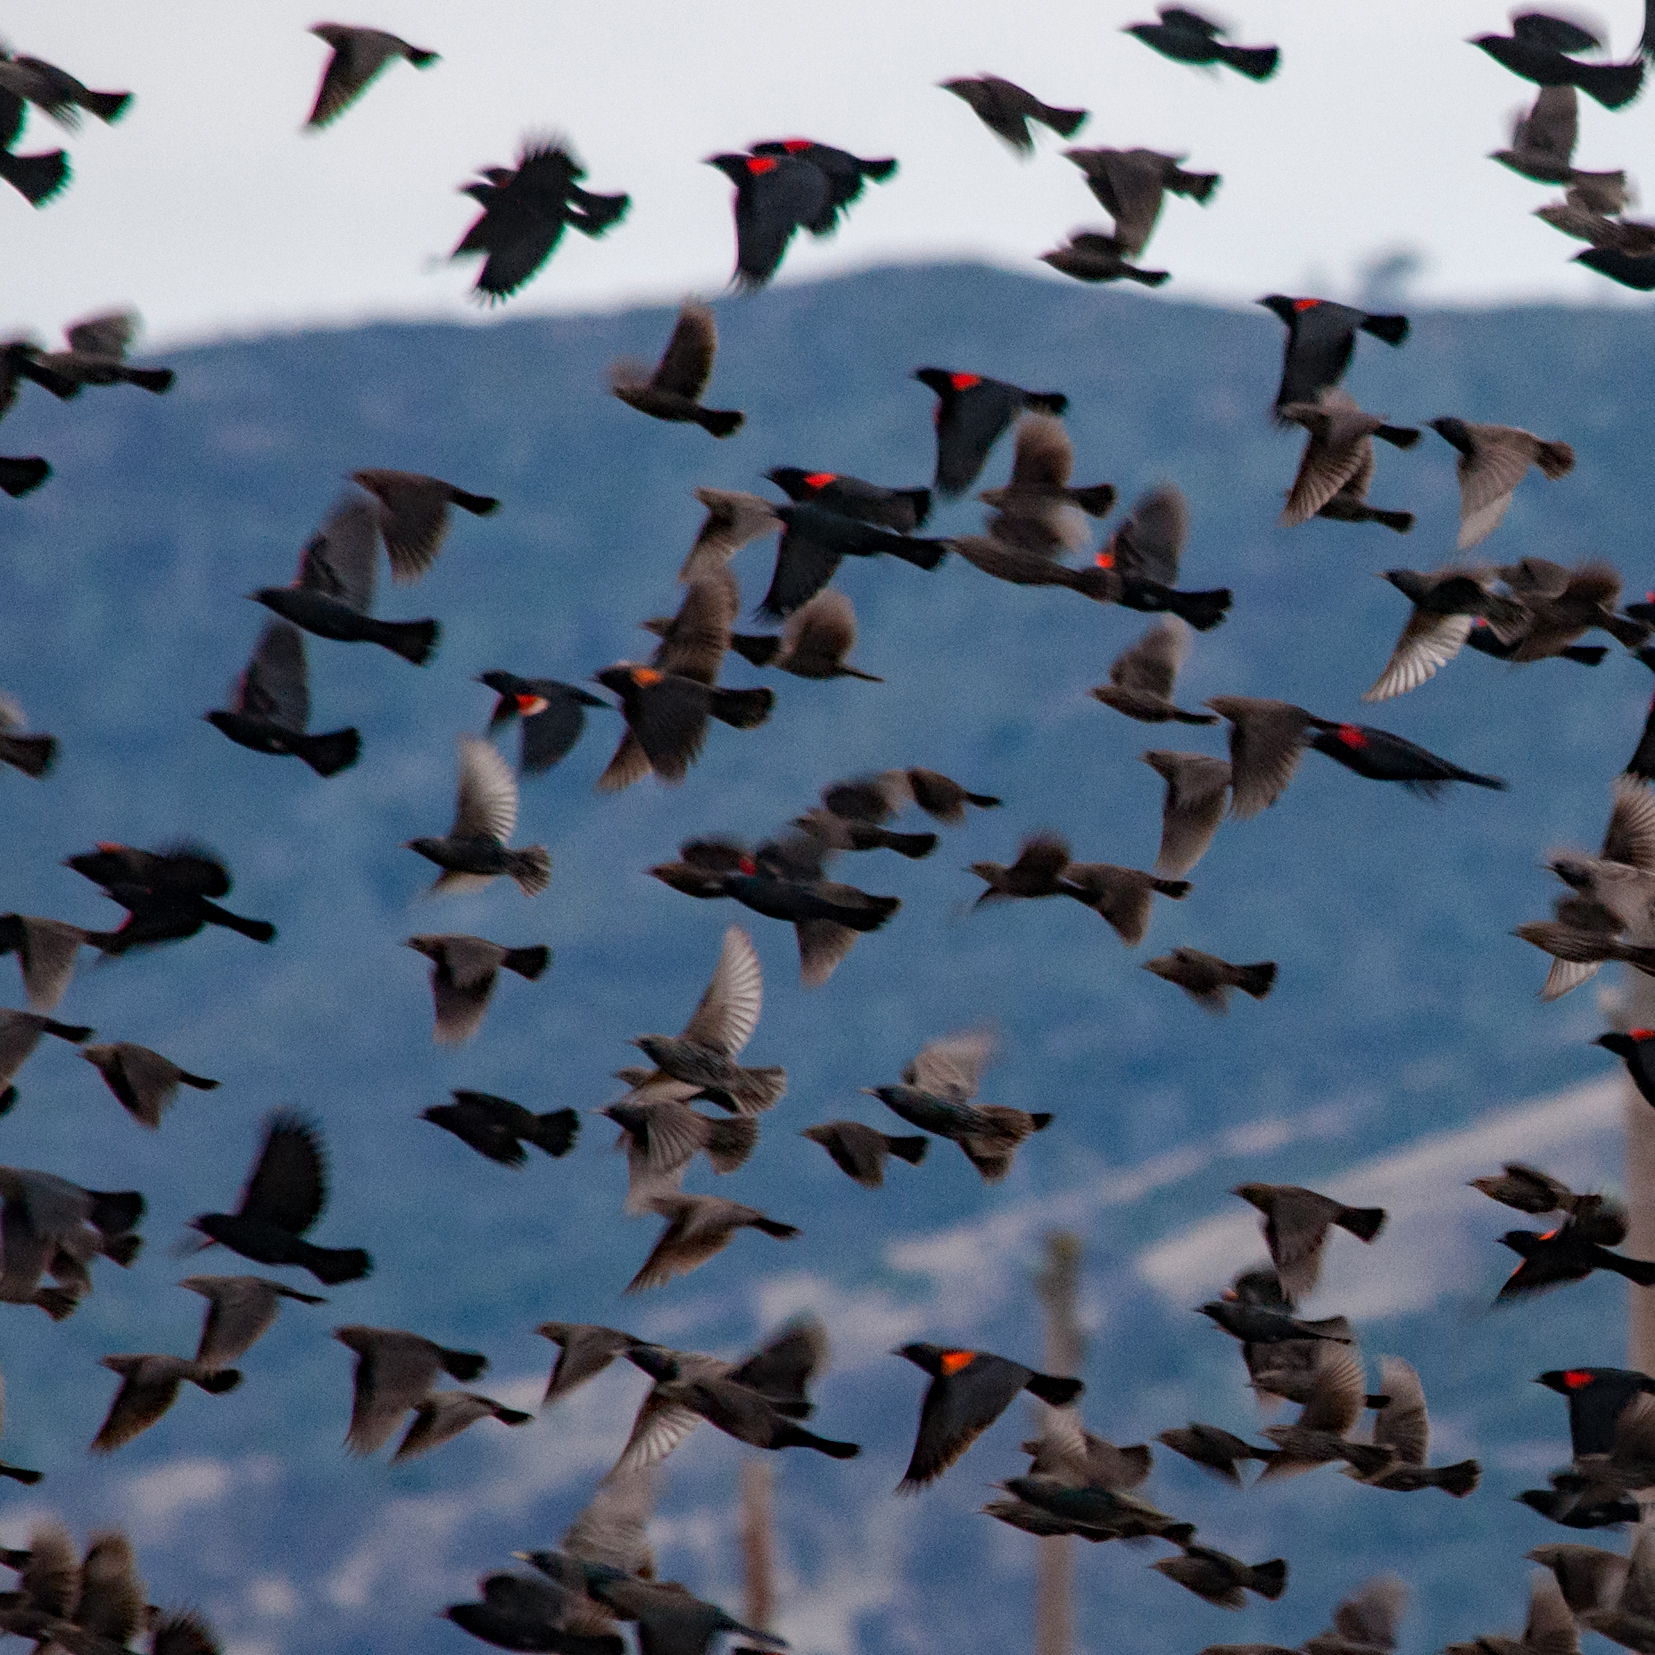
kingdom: Animalia
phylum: Chordata
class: Aves
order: Passeriformes
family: Icteridae
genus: Agelaius
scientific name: Agelaius phoeniceus
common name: Red-winged blackbird
